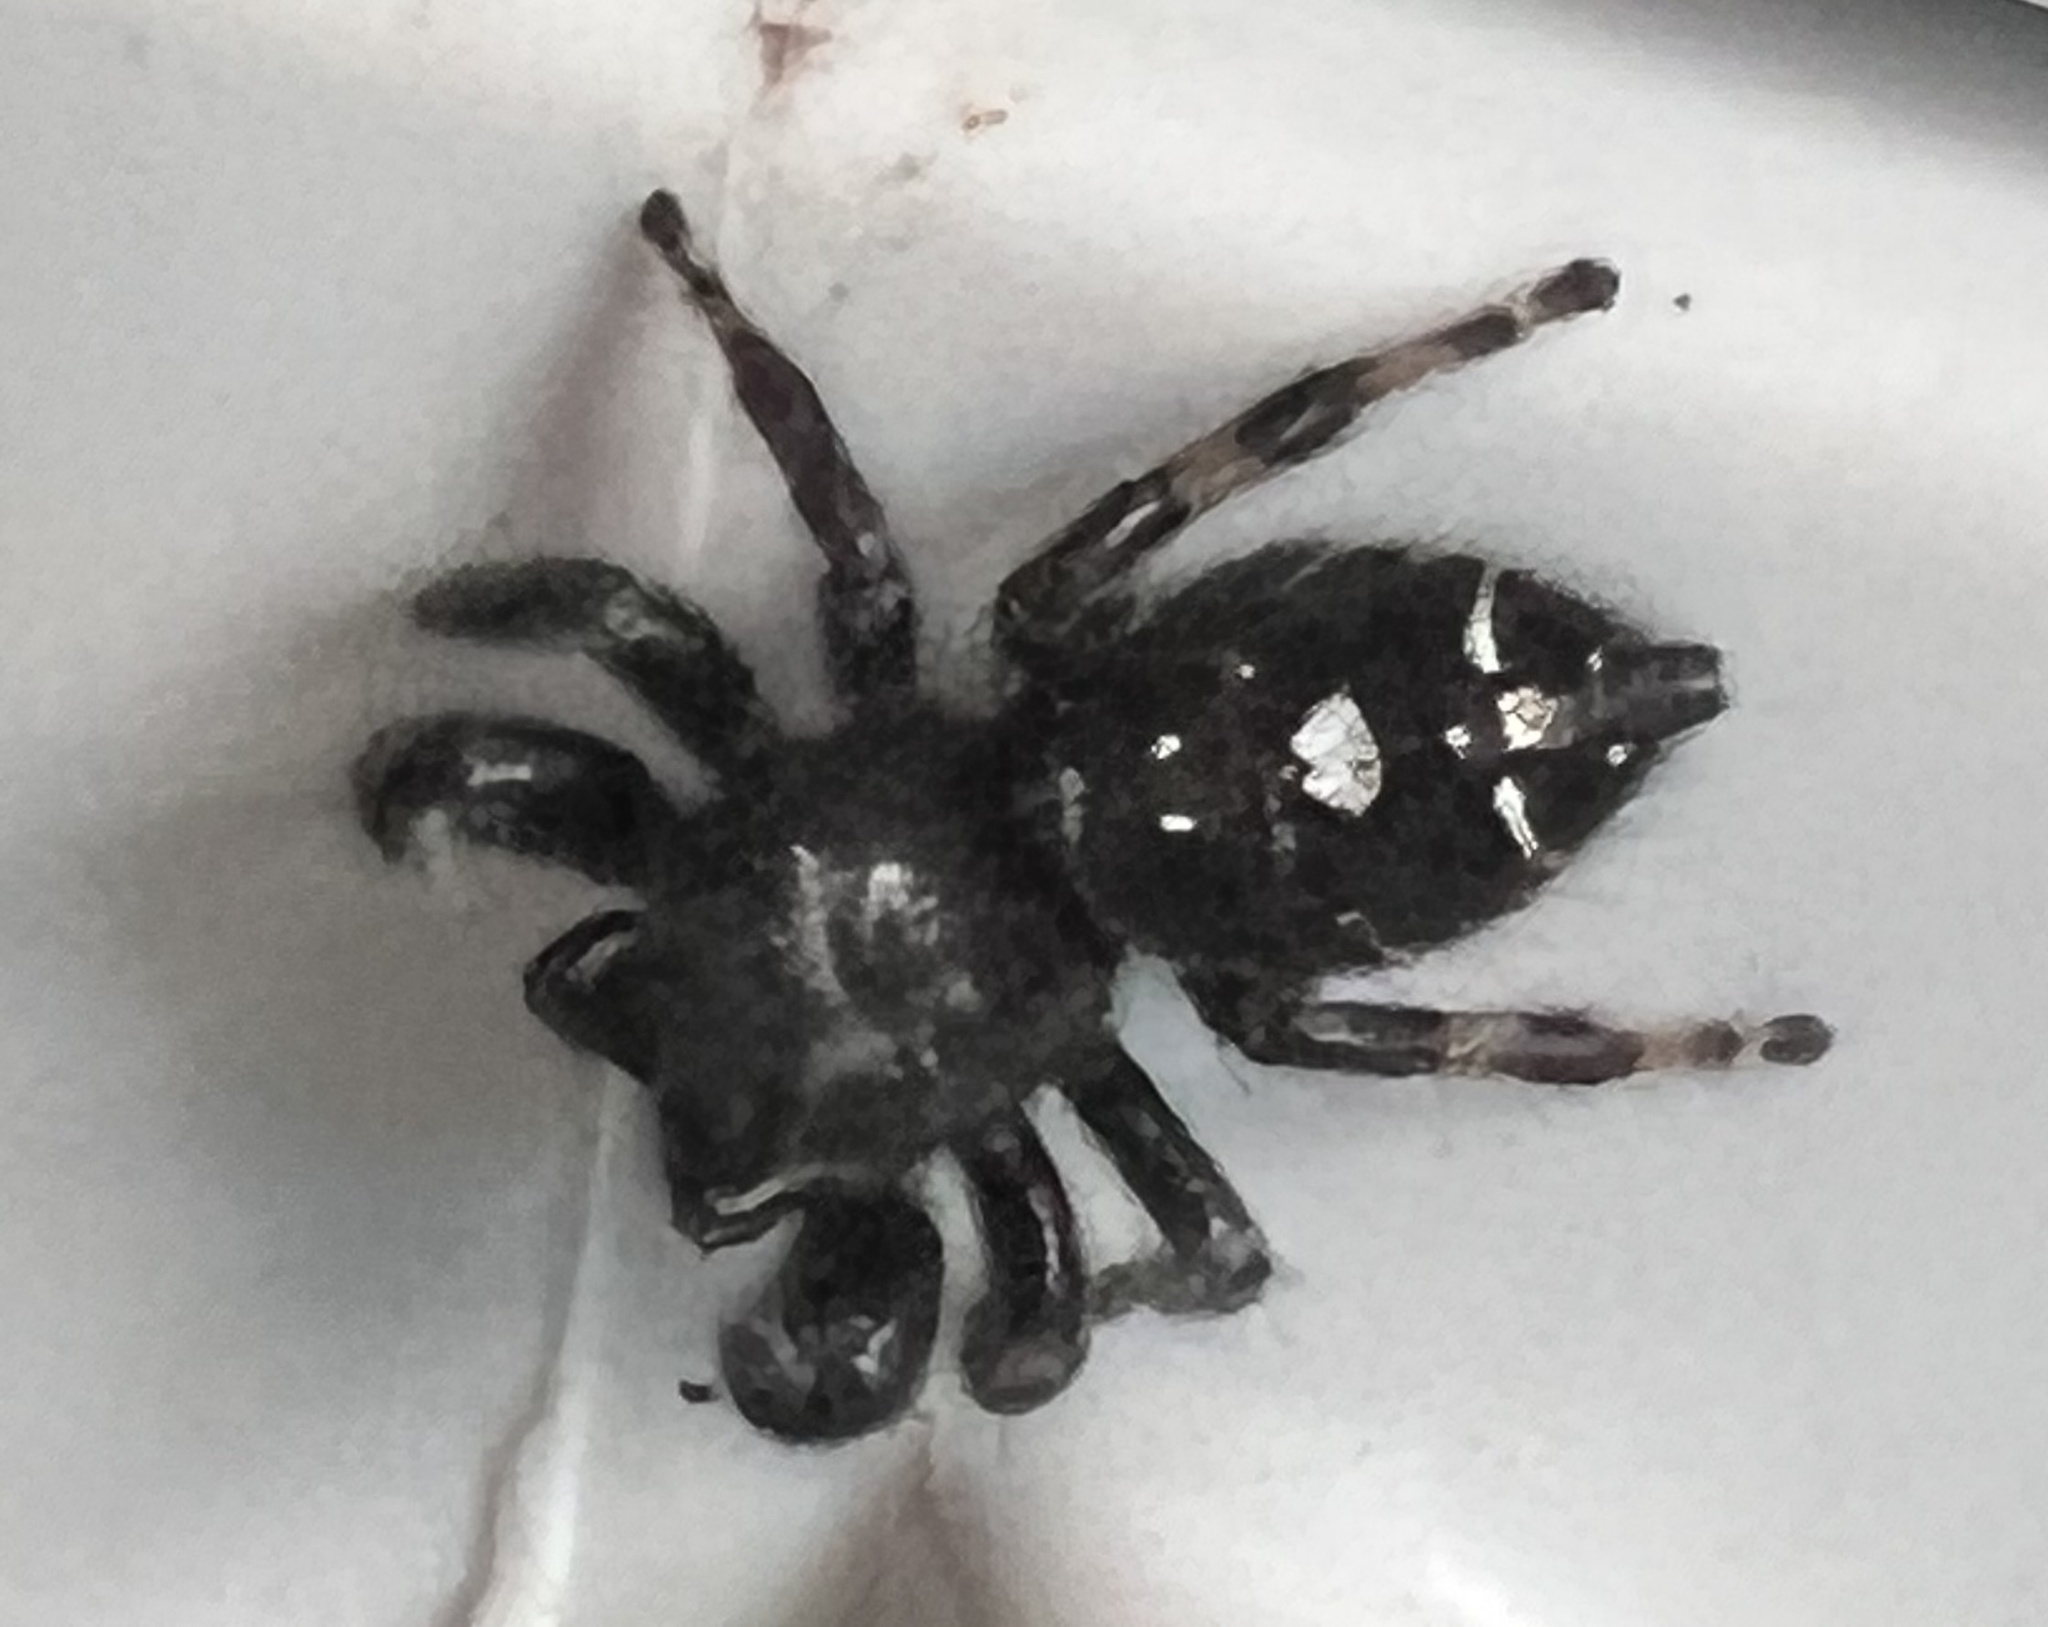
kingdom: Animalia
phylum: Arthropoda
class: Arachnida
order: Araneae
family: Salticidae
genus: Phidippus
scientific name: Phidippus audax
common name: Bold jumper
